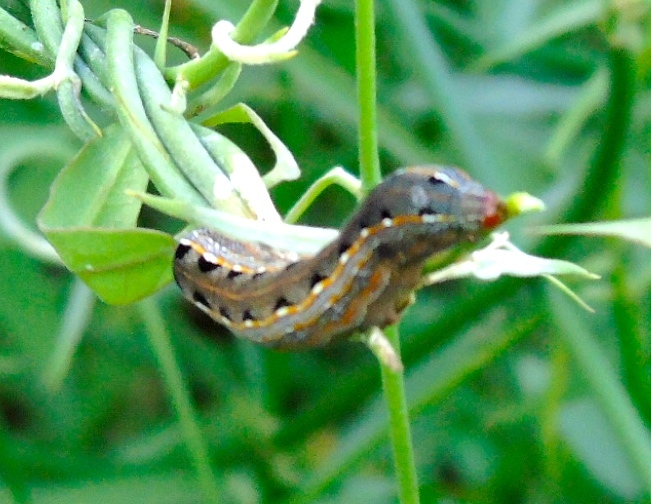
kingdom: Animalia
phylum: Arthropoda
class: Insecta
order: Lepidoptera
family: Noctuidae
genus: Spodoptera
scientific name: Spodoptera
